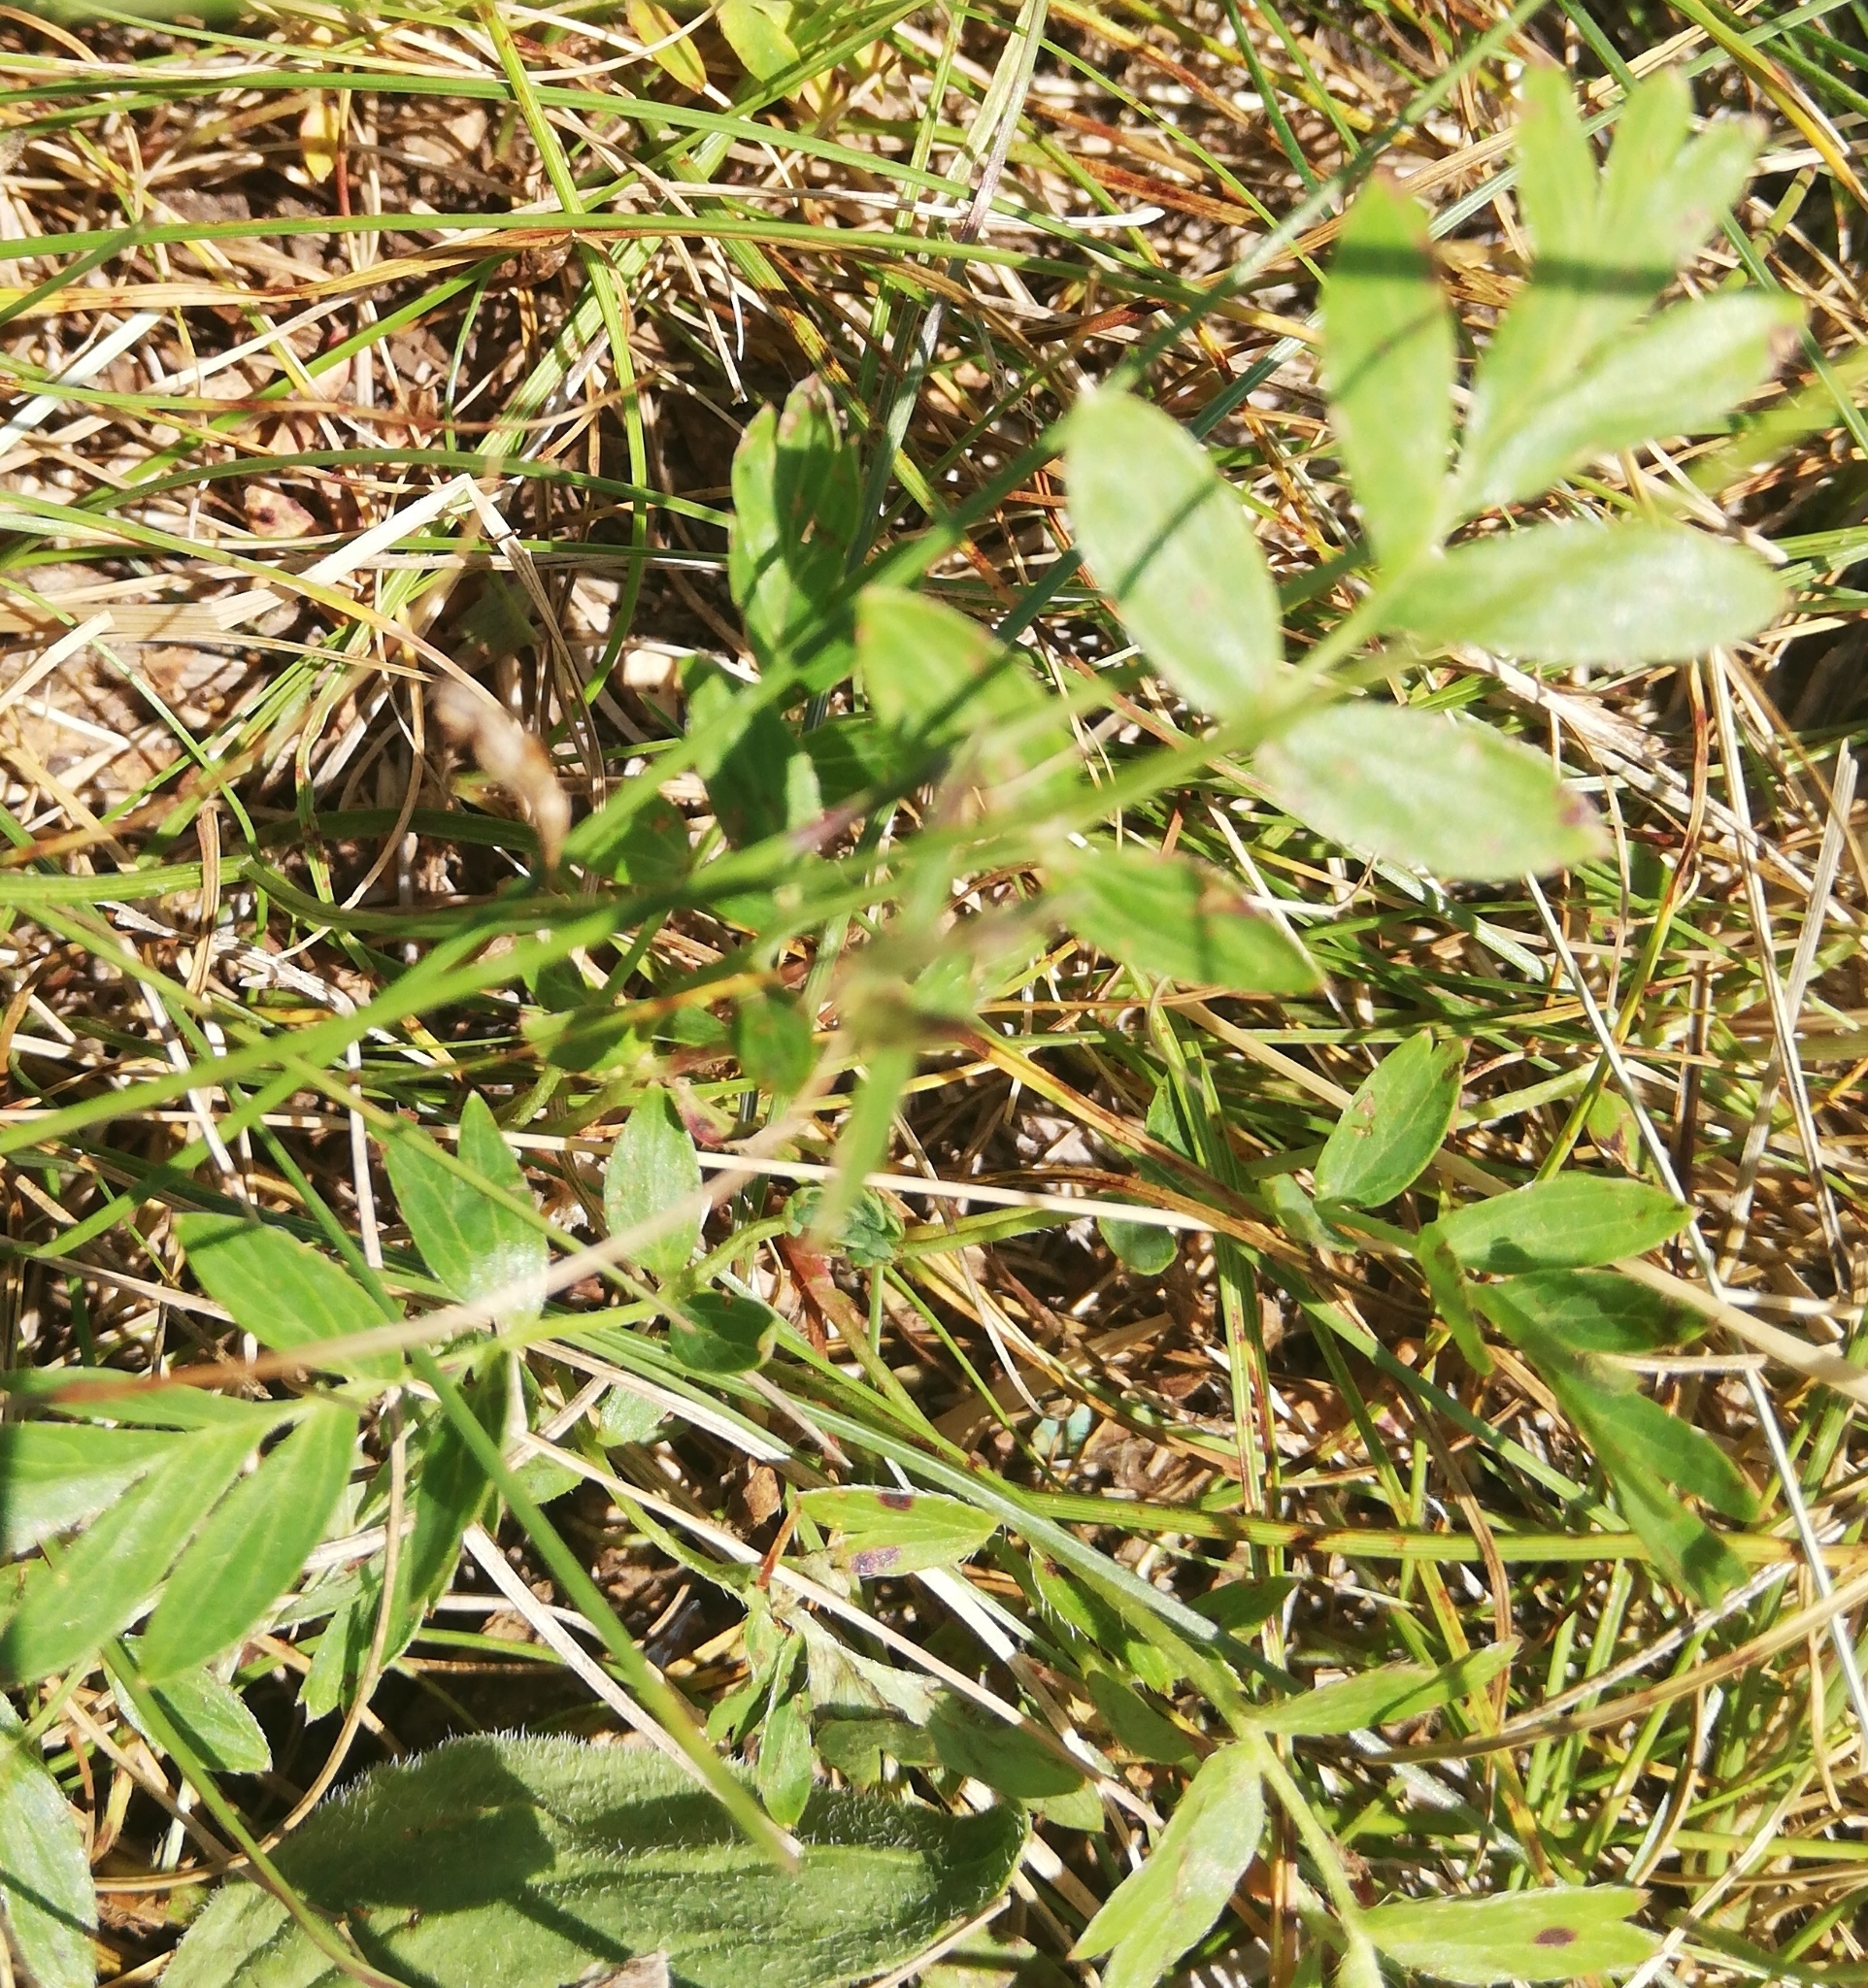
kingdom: Plantae
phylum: Tracheophyta
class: Magnoliopsida
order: Rosales
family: Rosaceae
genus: Sibbaldianthe
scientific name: Sibbaldianthe bifurca
